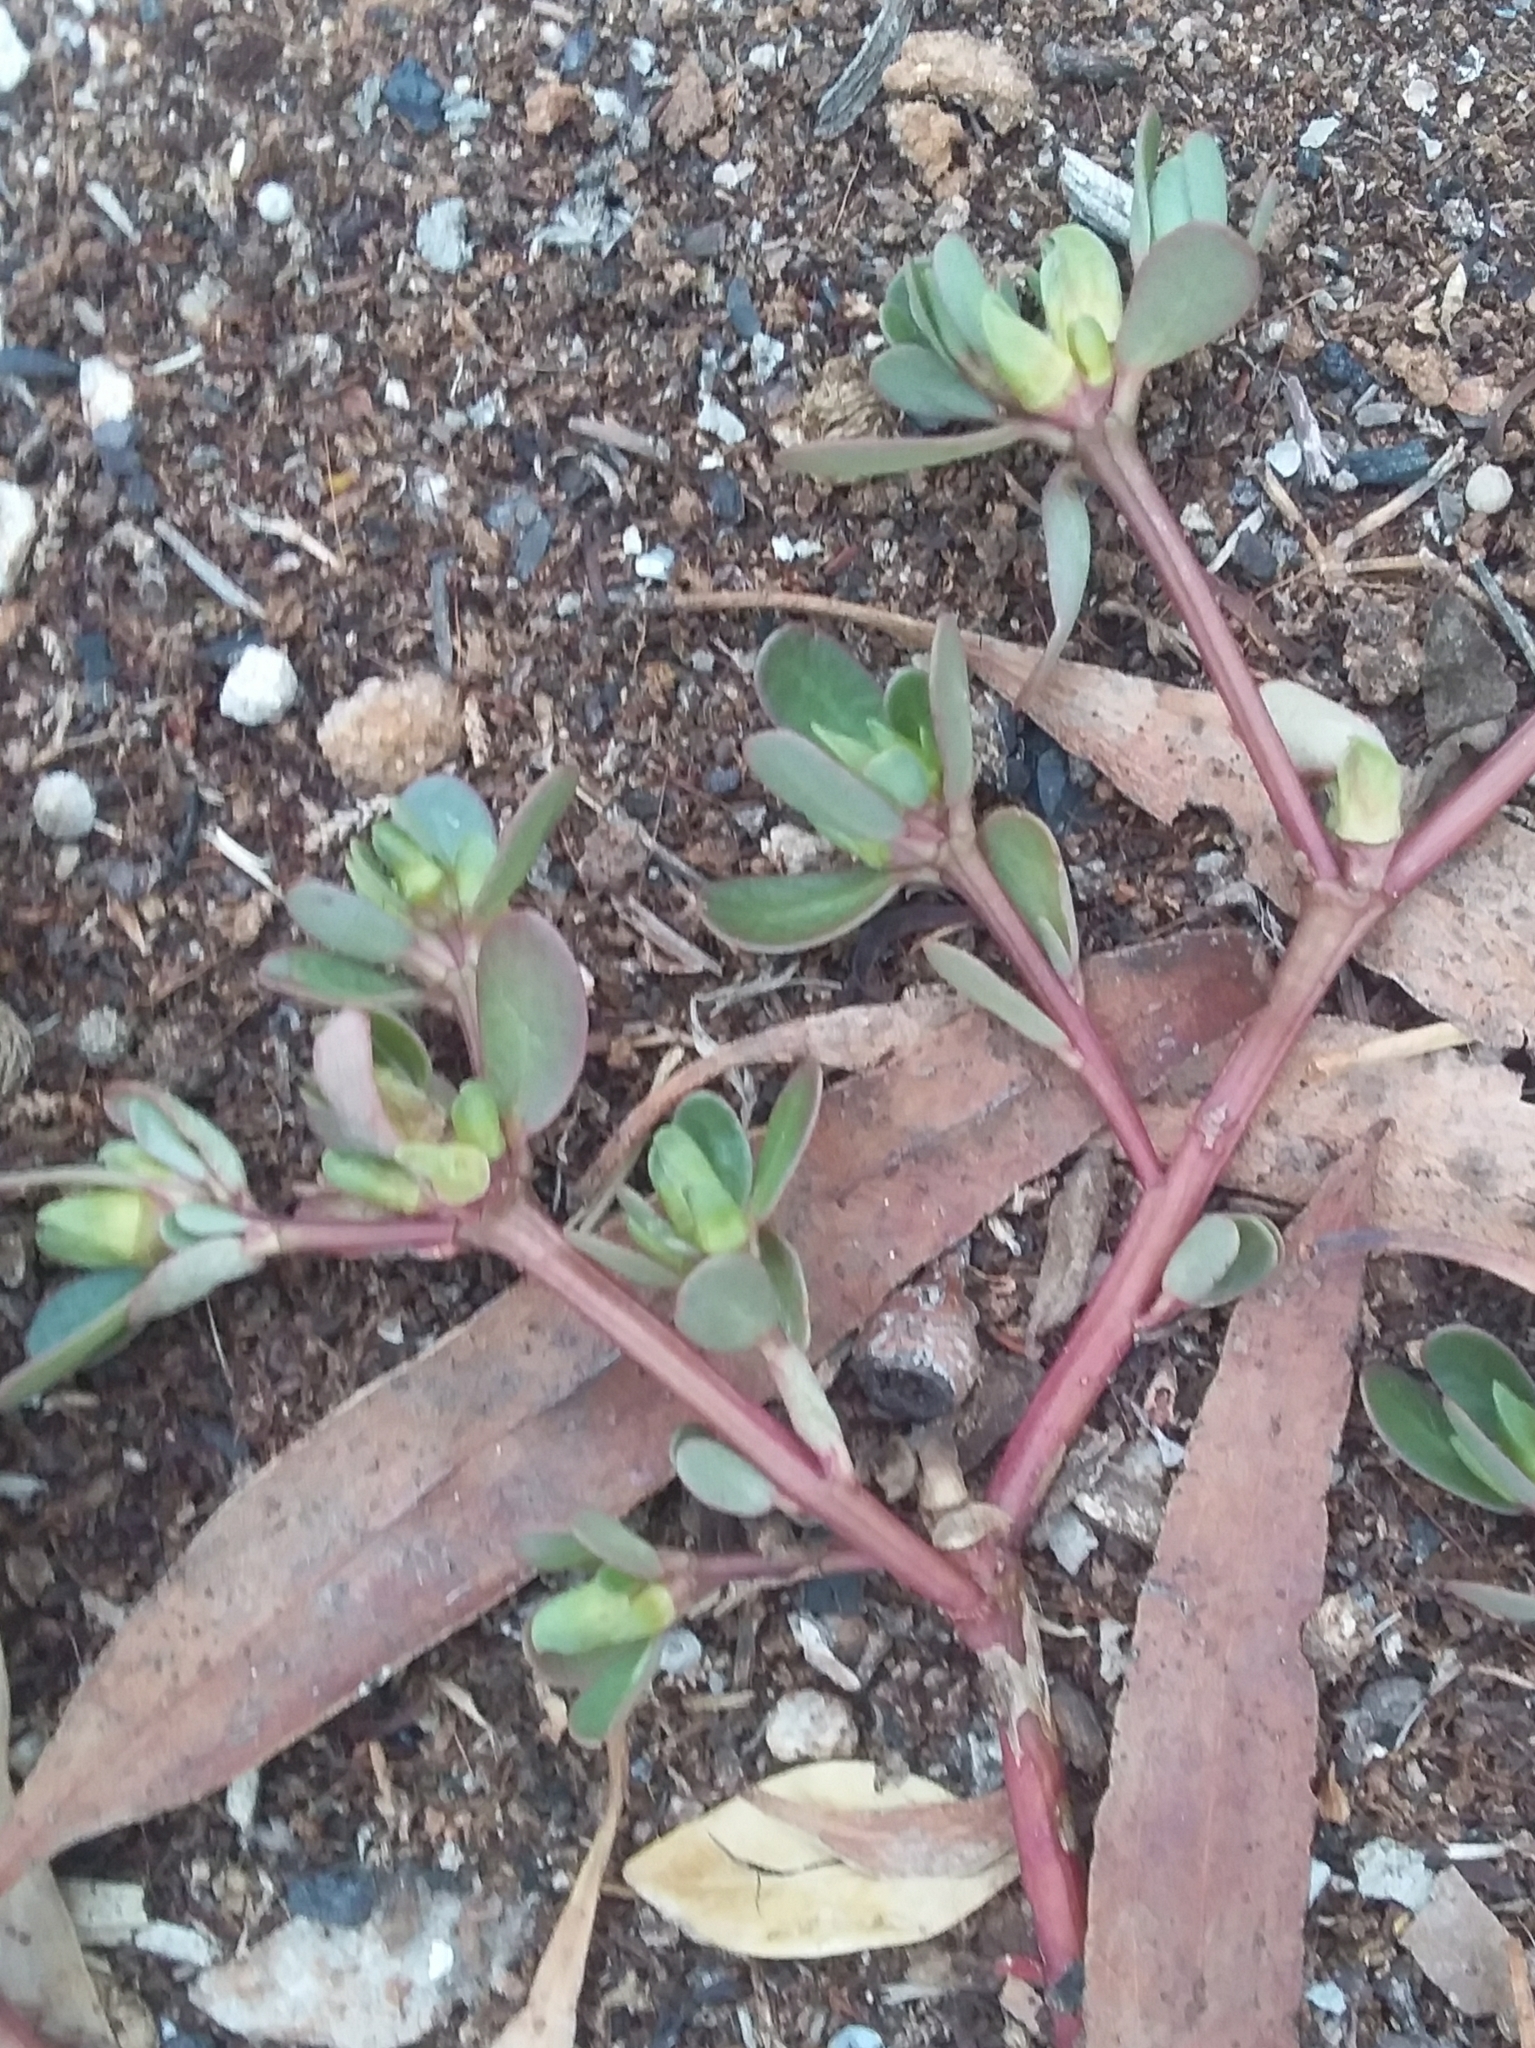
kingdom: Plantae
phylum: Tracheophyta
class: Magnoliopsida
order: Caryophyllales
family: Portulacaceae
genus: Portulaca
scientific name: Portulaca oleracea
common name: Common purslane
